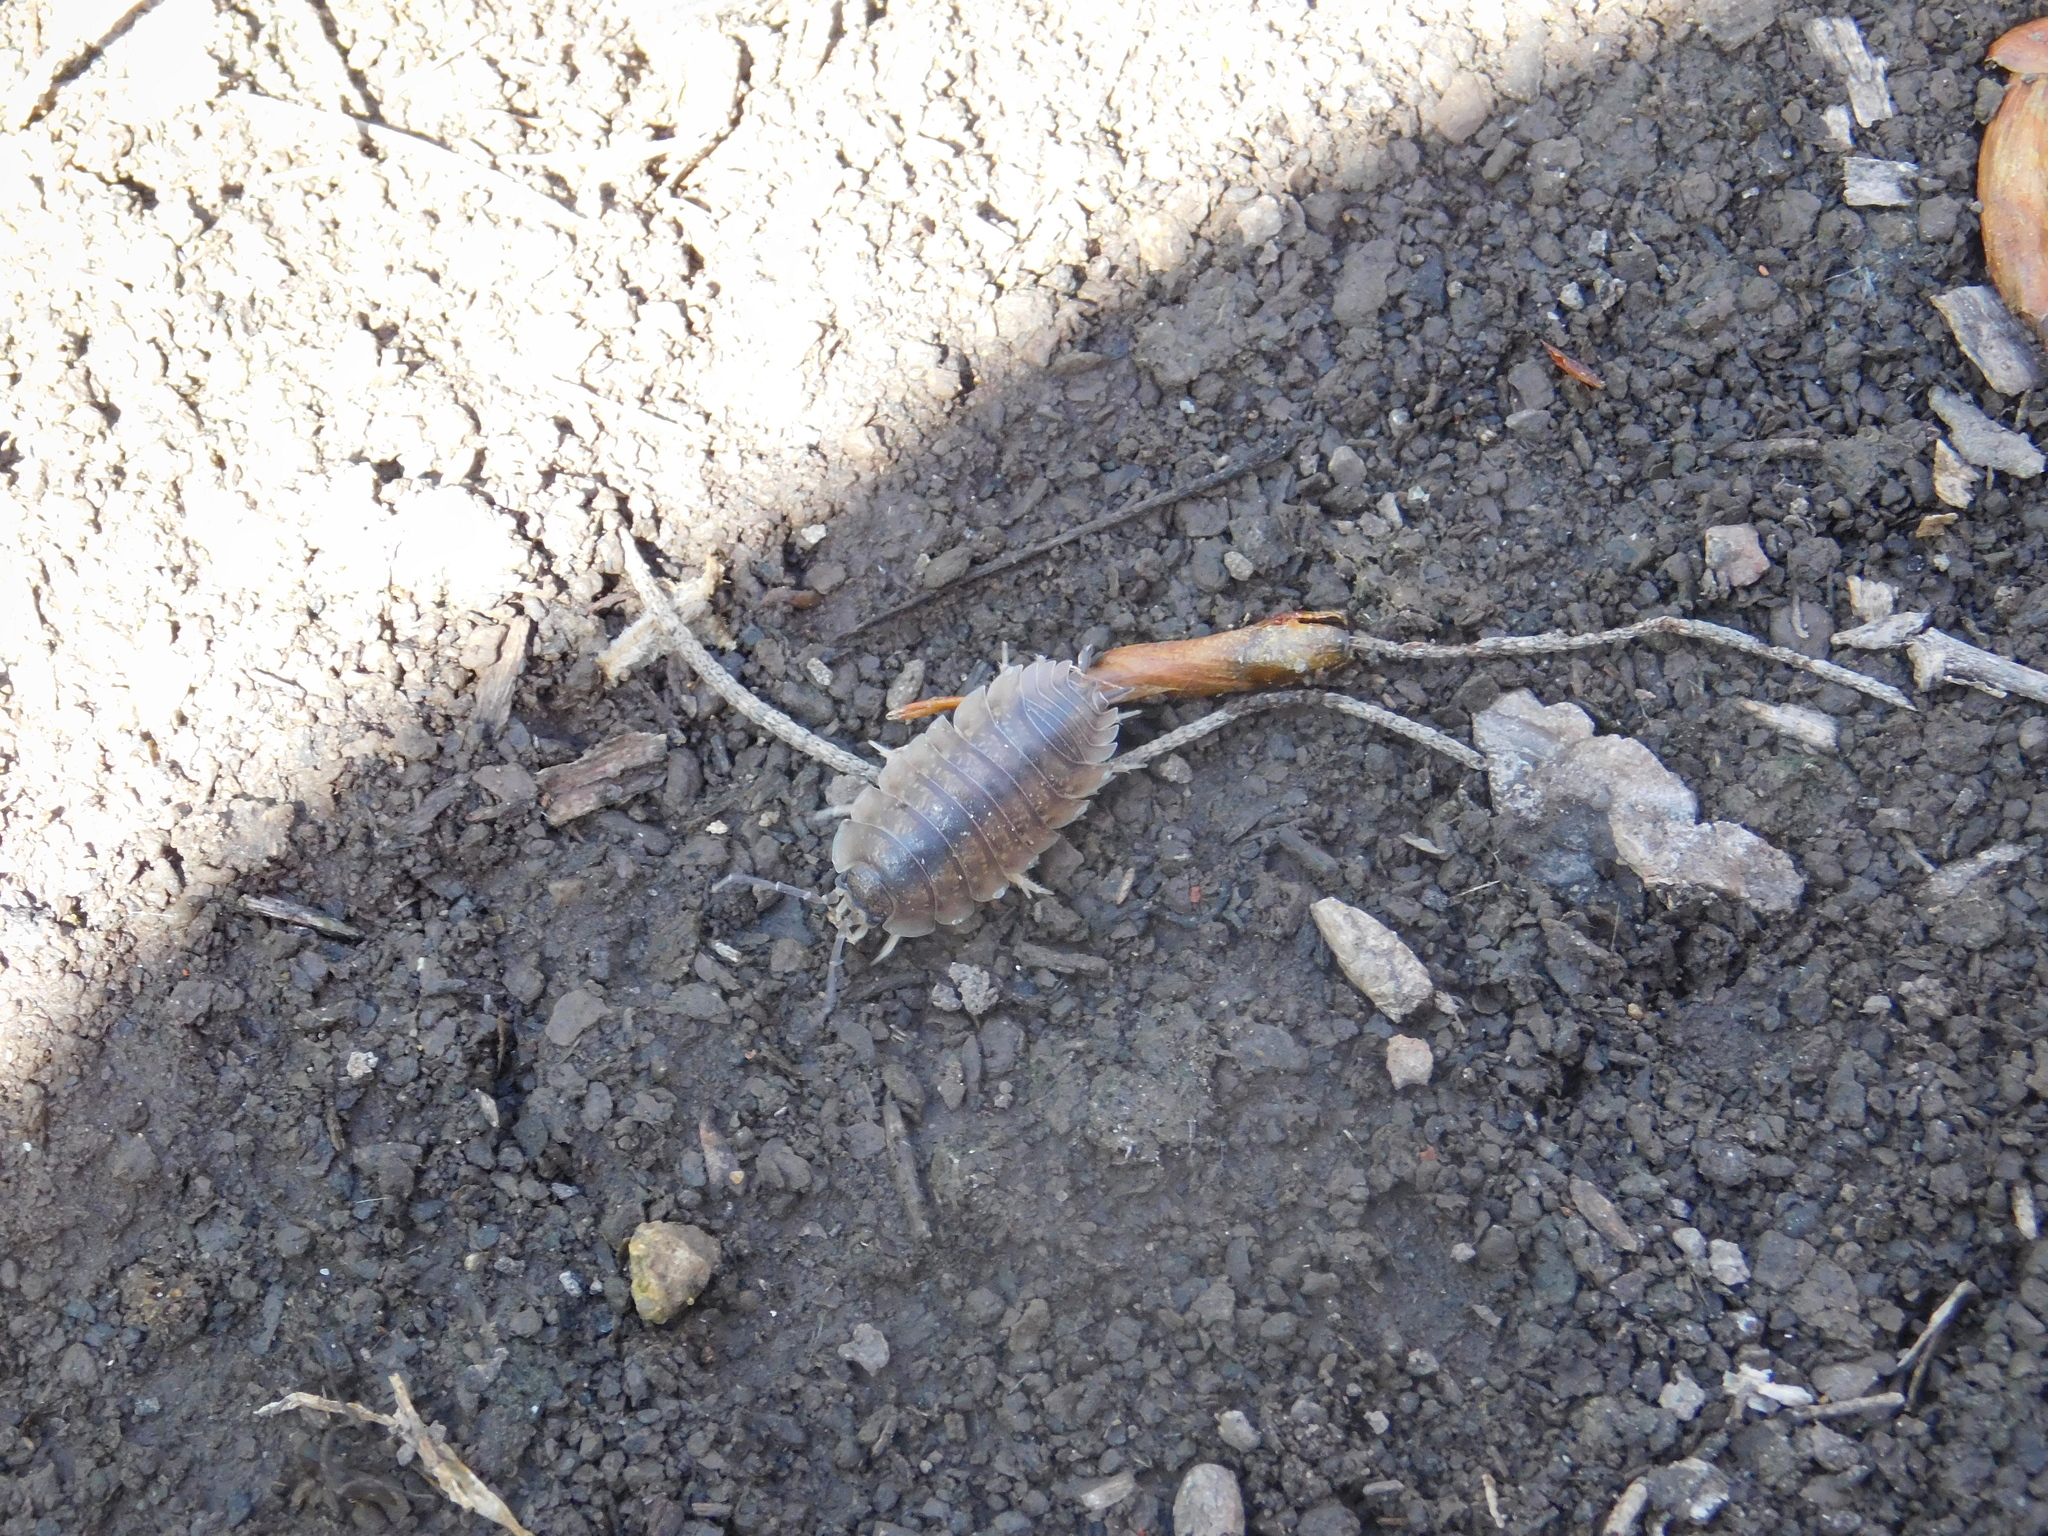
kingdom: Animalia
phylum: Arthropoda
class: Malacostraca
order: Isopoda
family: Porcellionidae
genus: Porcellio
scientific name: Porcellio laevis
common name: Swift woodlouse
